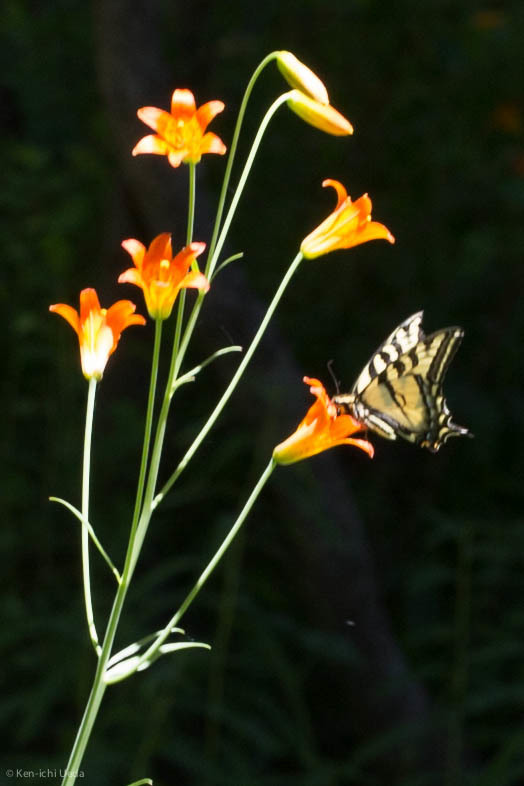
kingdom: Animalia
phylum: Arthropoda
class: Insecta
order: Lepidoptera
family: Papilionidae
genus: Papilio
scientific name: Papilio rutulus
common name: Western tiger swallowtail
